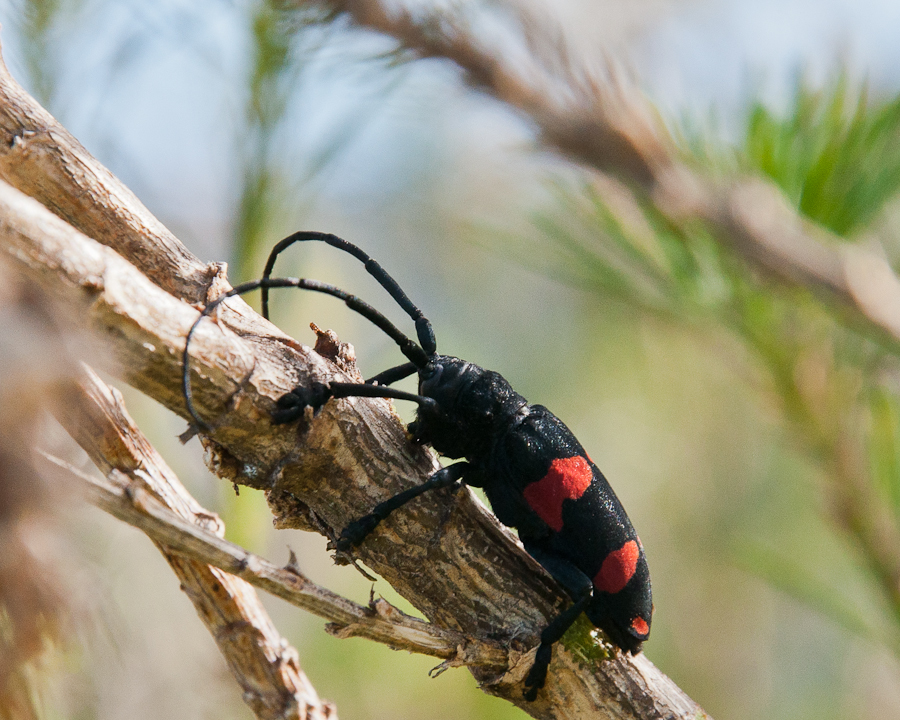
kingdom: Animalia
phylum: Arthropoda
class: Insecta
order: Coleoptera
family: Cerambycidae
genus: Ceroplesis
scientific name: Ceroplesis aethiops
